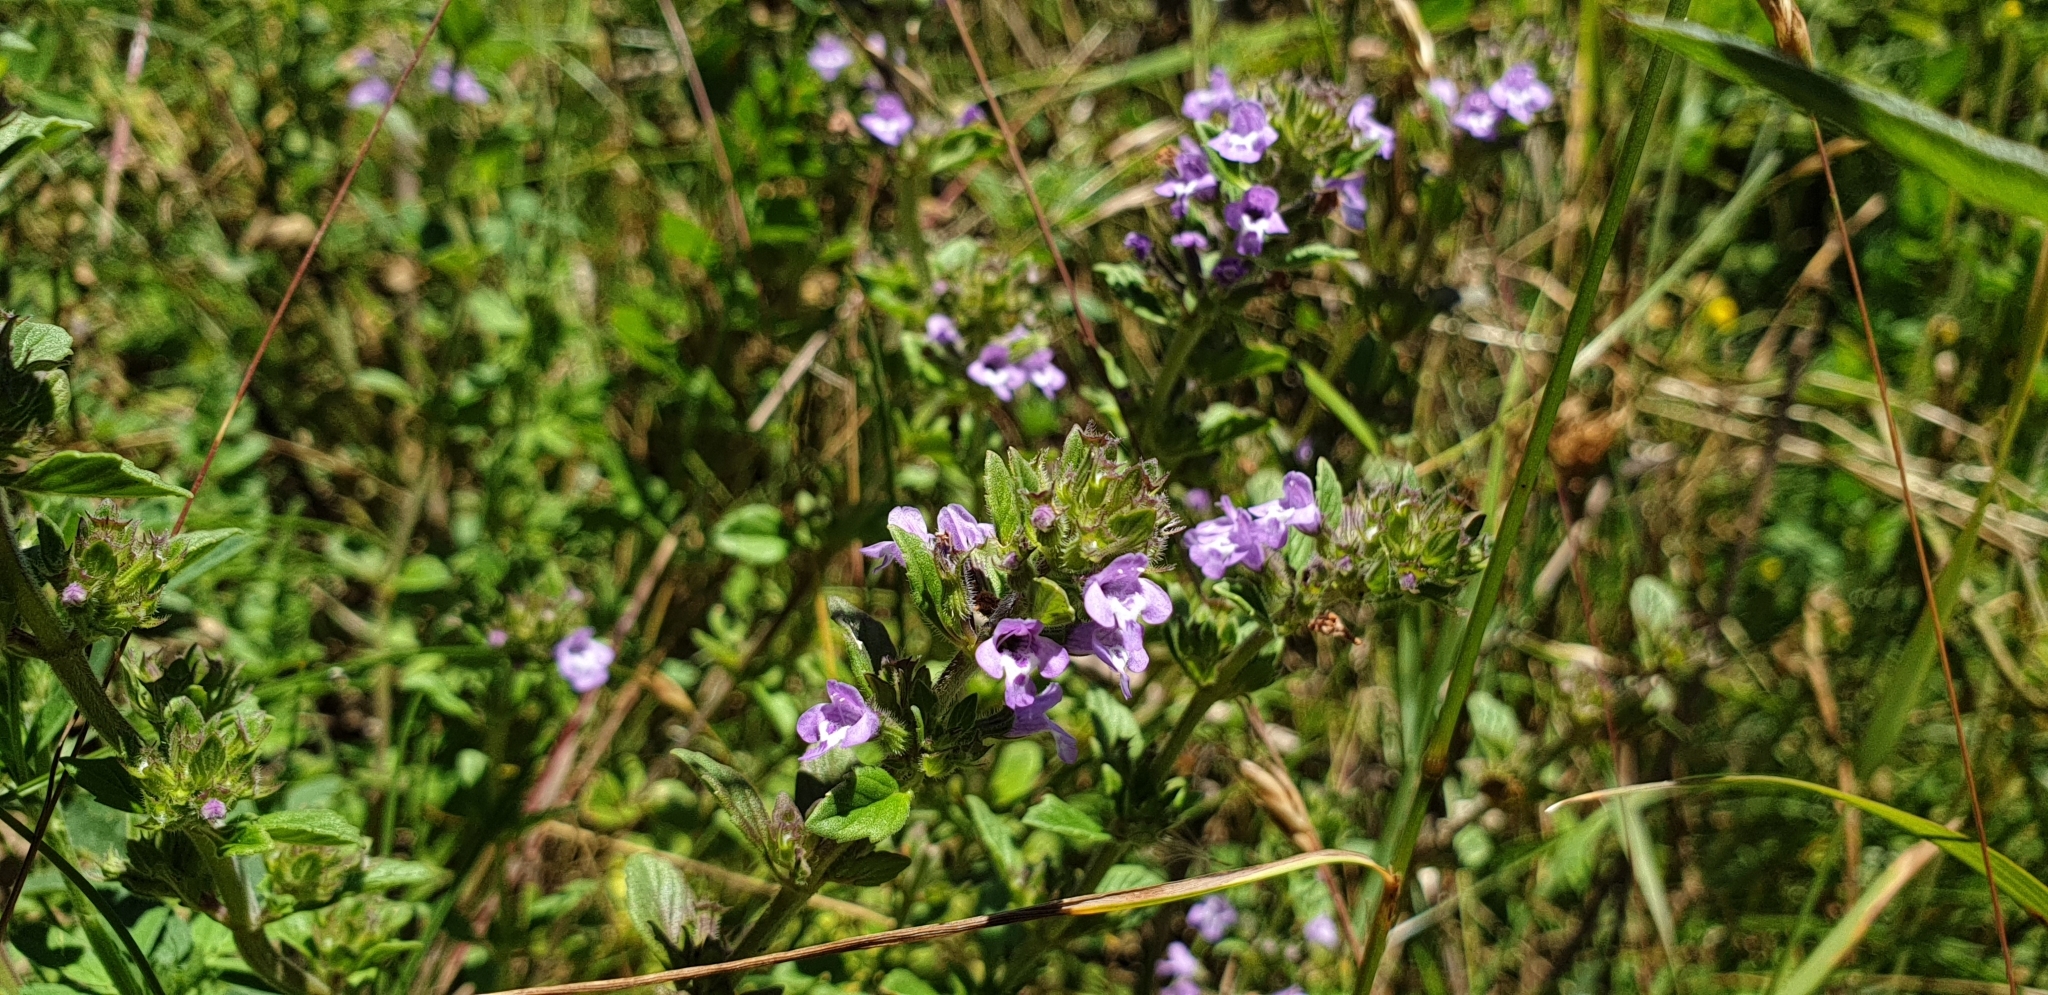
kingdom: Plantae
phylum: Tracheophyta
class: Magnoliopsida
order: Lamiales
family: Lamiaceae
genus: Clinopodium
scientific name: Clinopodium acinos
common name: Basil thyme
